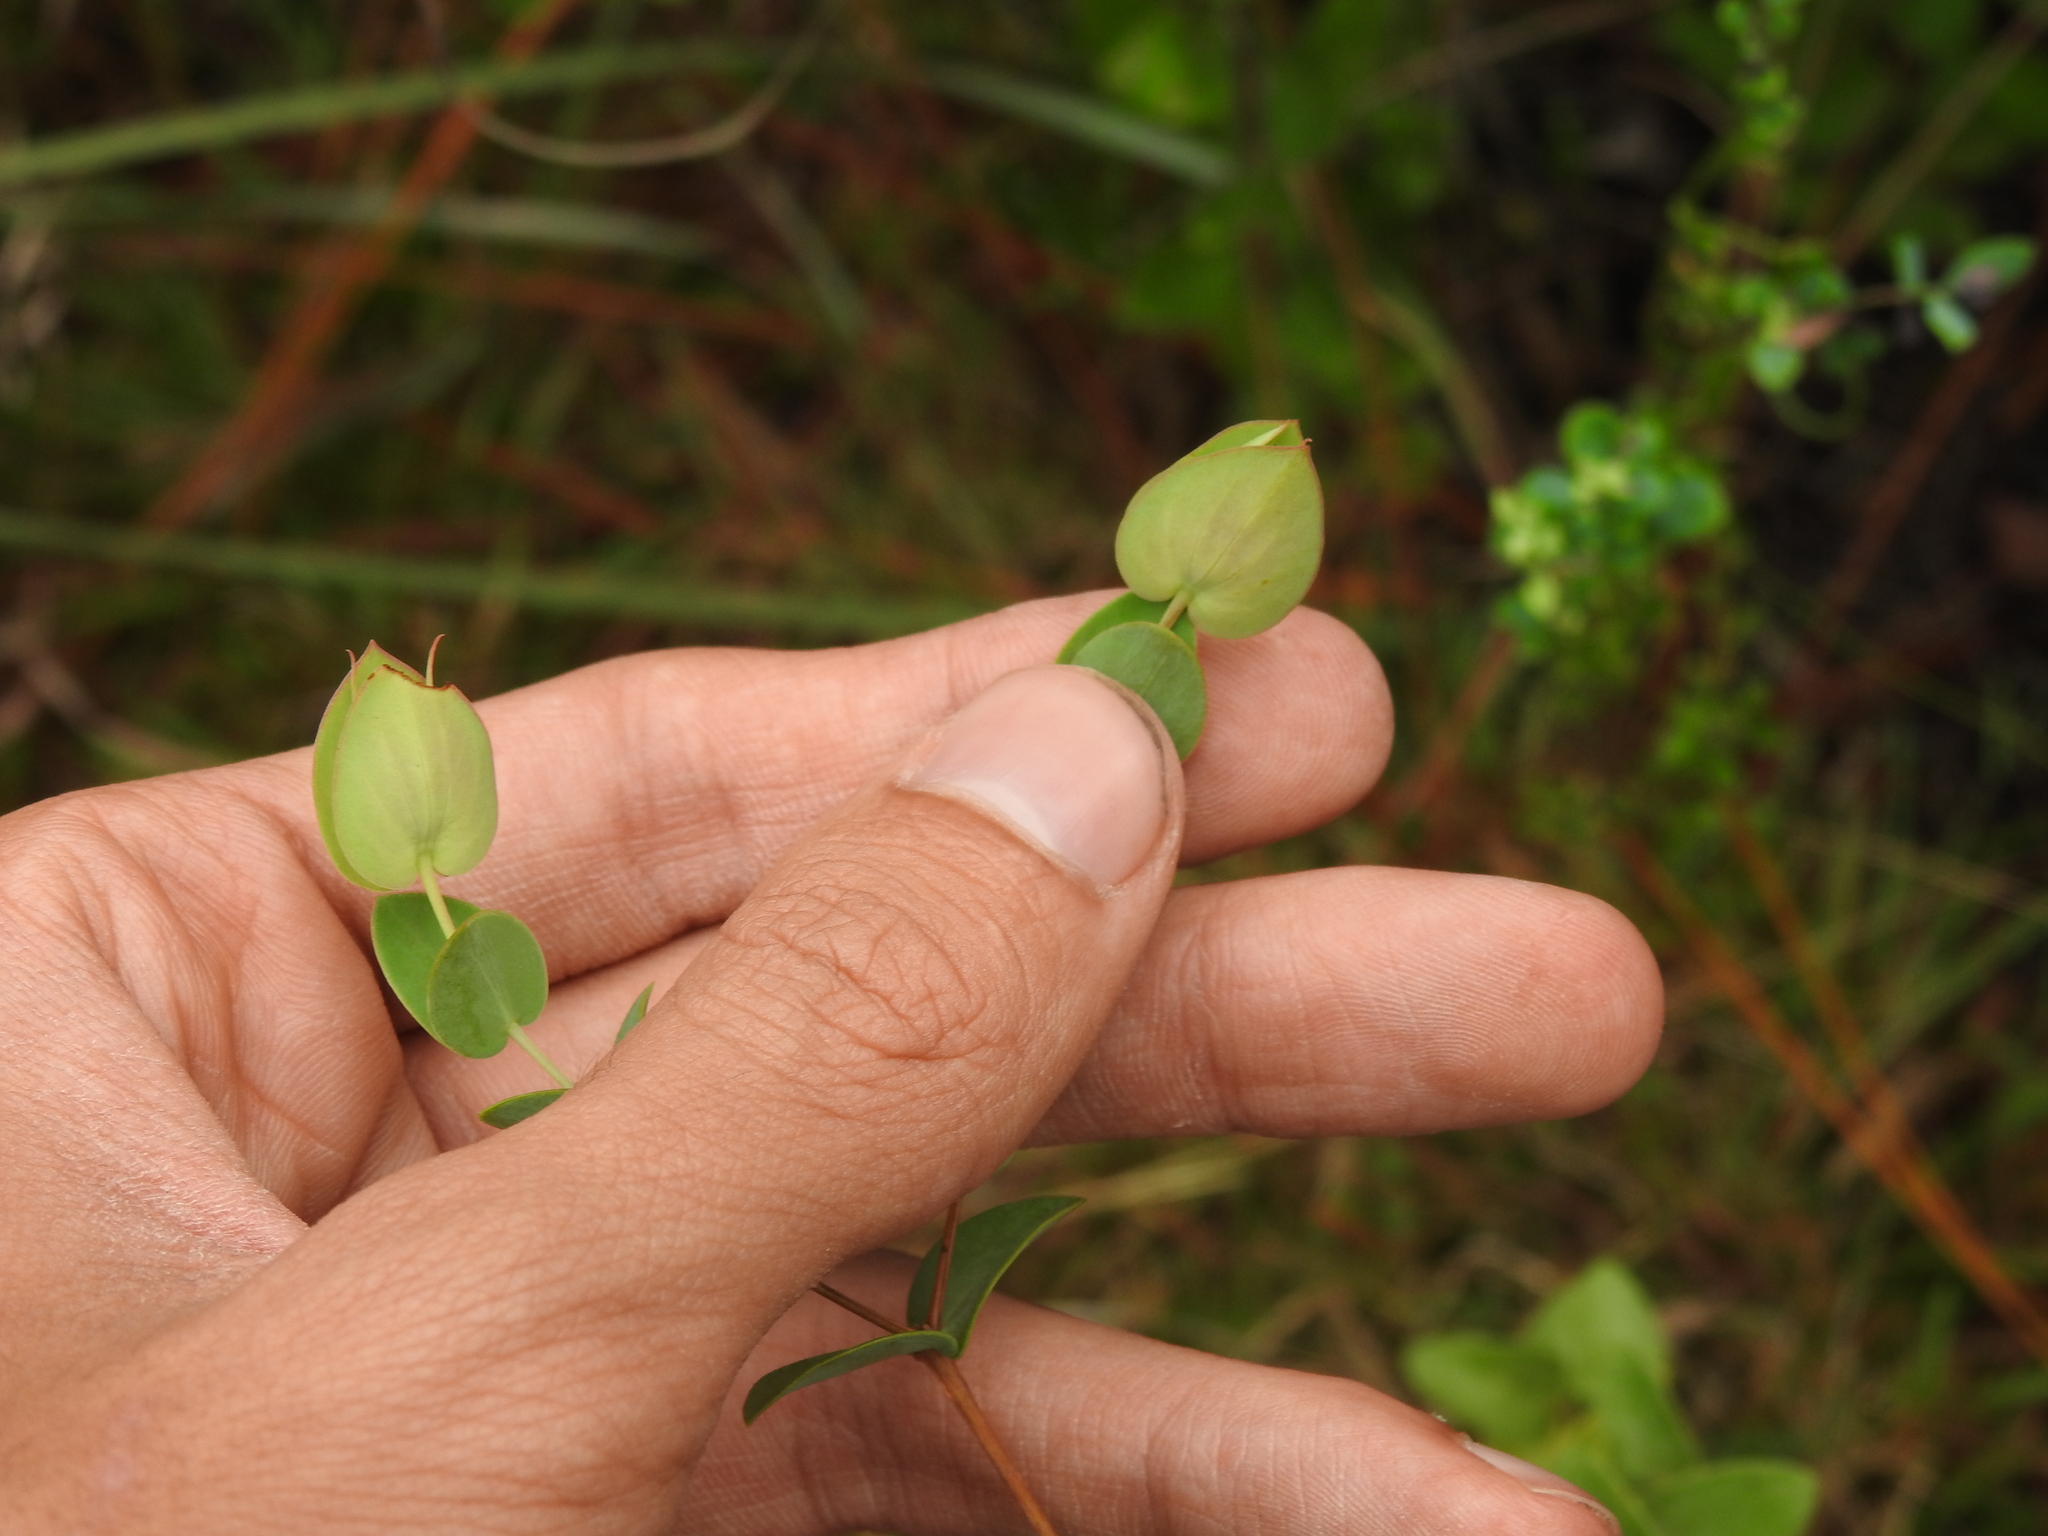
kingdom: Plantae
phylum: Tracheophyta
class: Magnoliopsida
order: Malpighiales
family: Hypericaceae
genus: Hypericum
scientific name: Hypericum tetrapetalum
